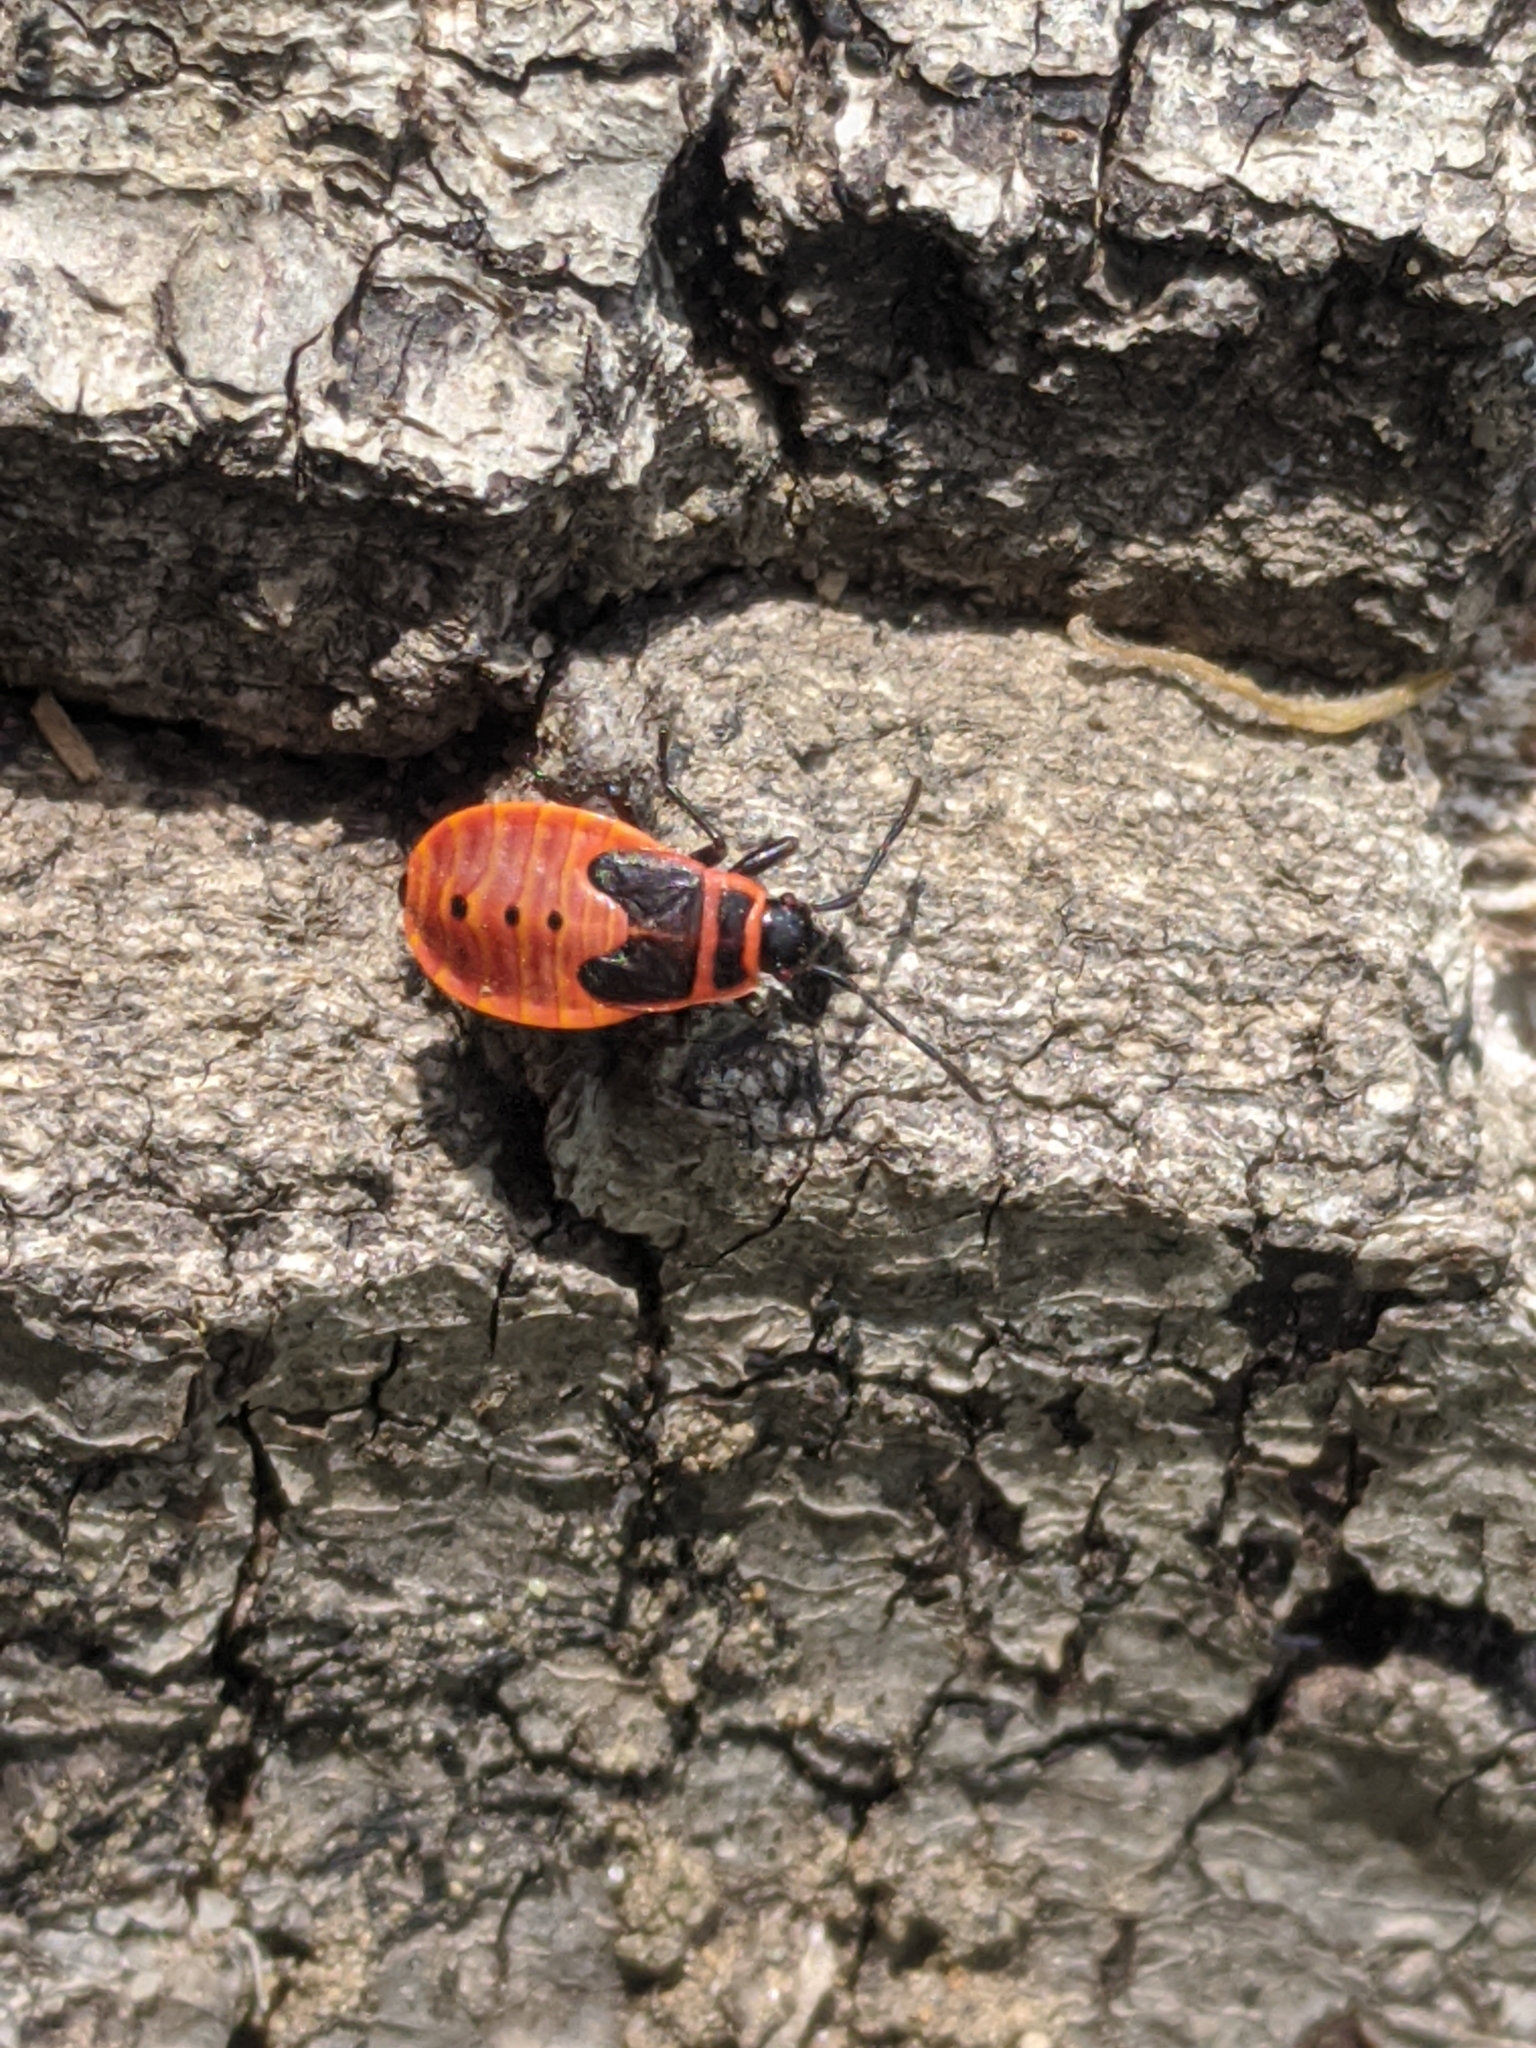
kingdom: Animalia
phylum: Arthropoda
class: Insecta
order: Hemiptera
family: Pyrrhocoridae
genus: Pyrrhocoris
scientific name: Pyrrhocoris apterus
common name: Firebug
